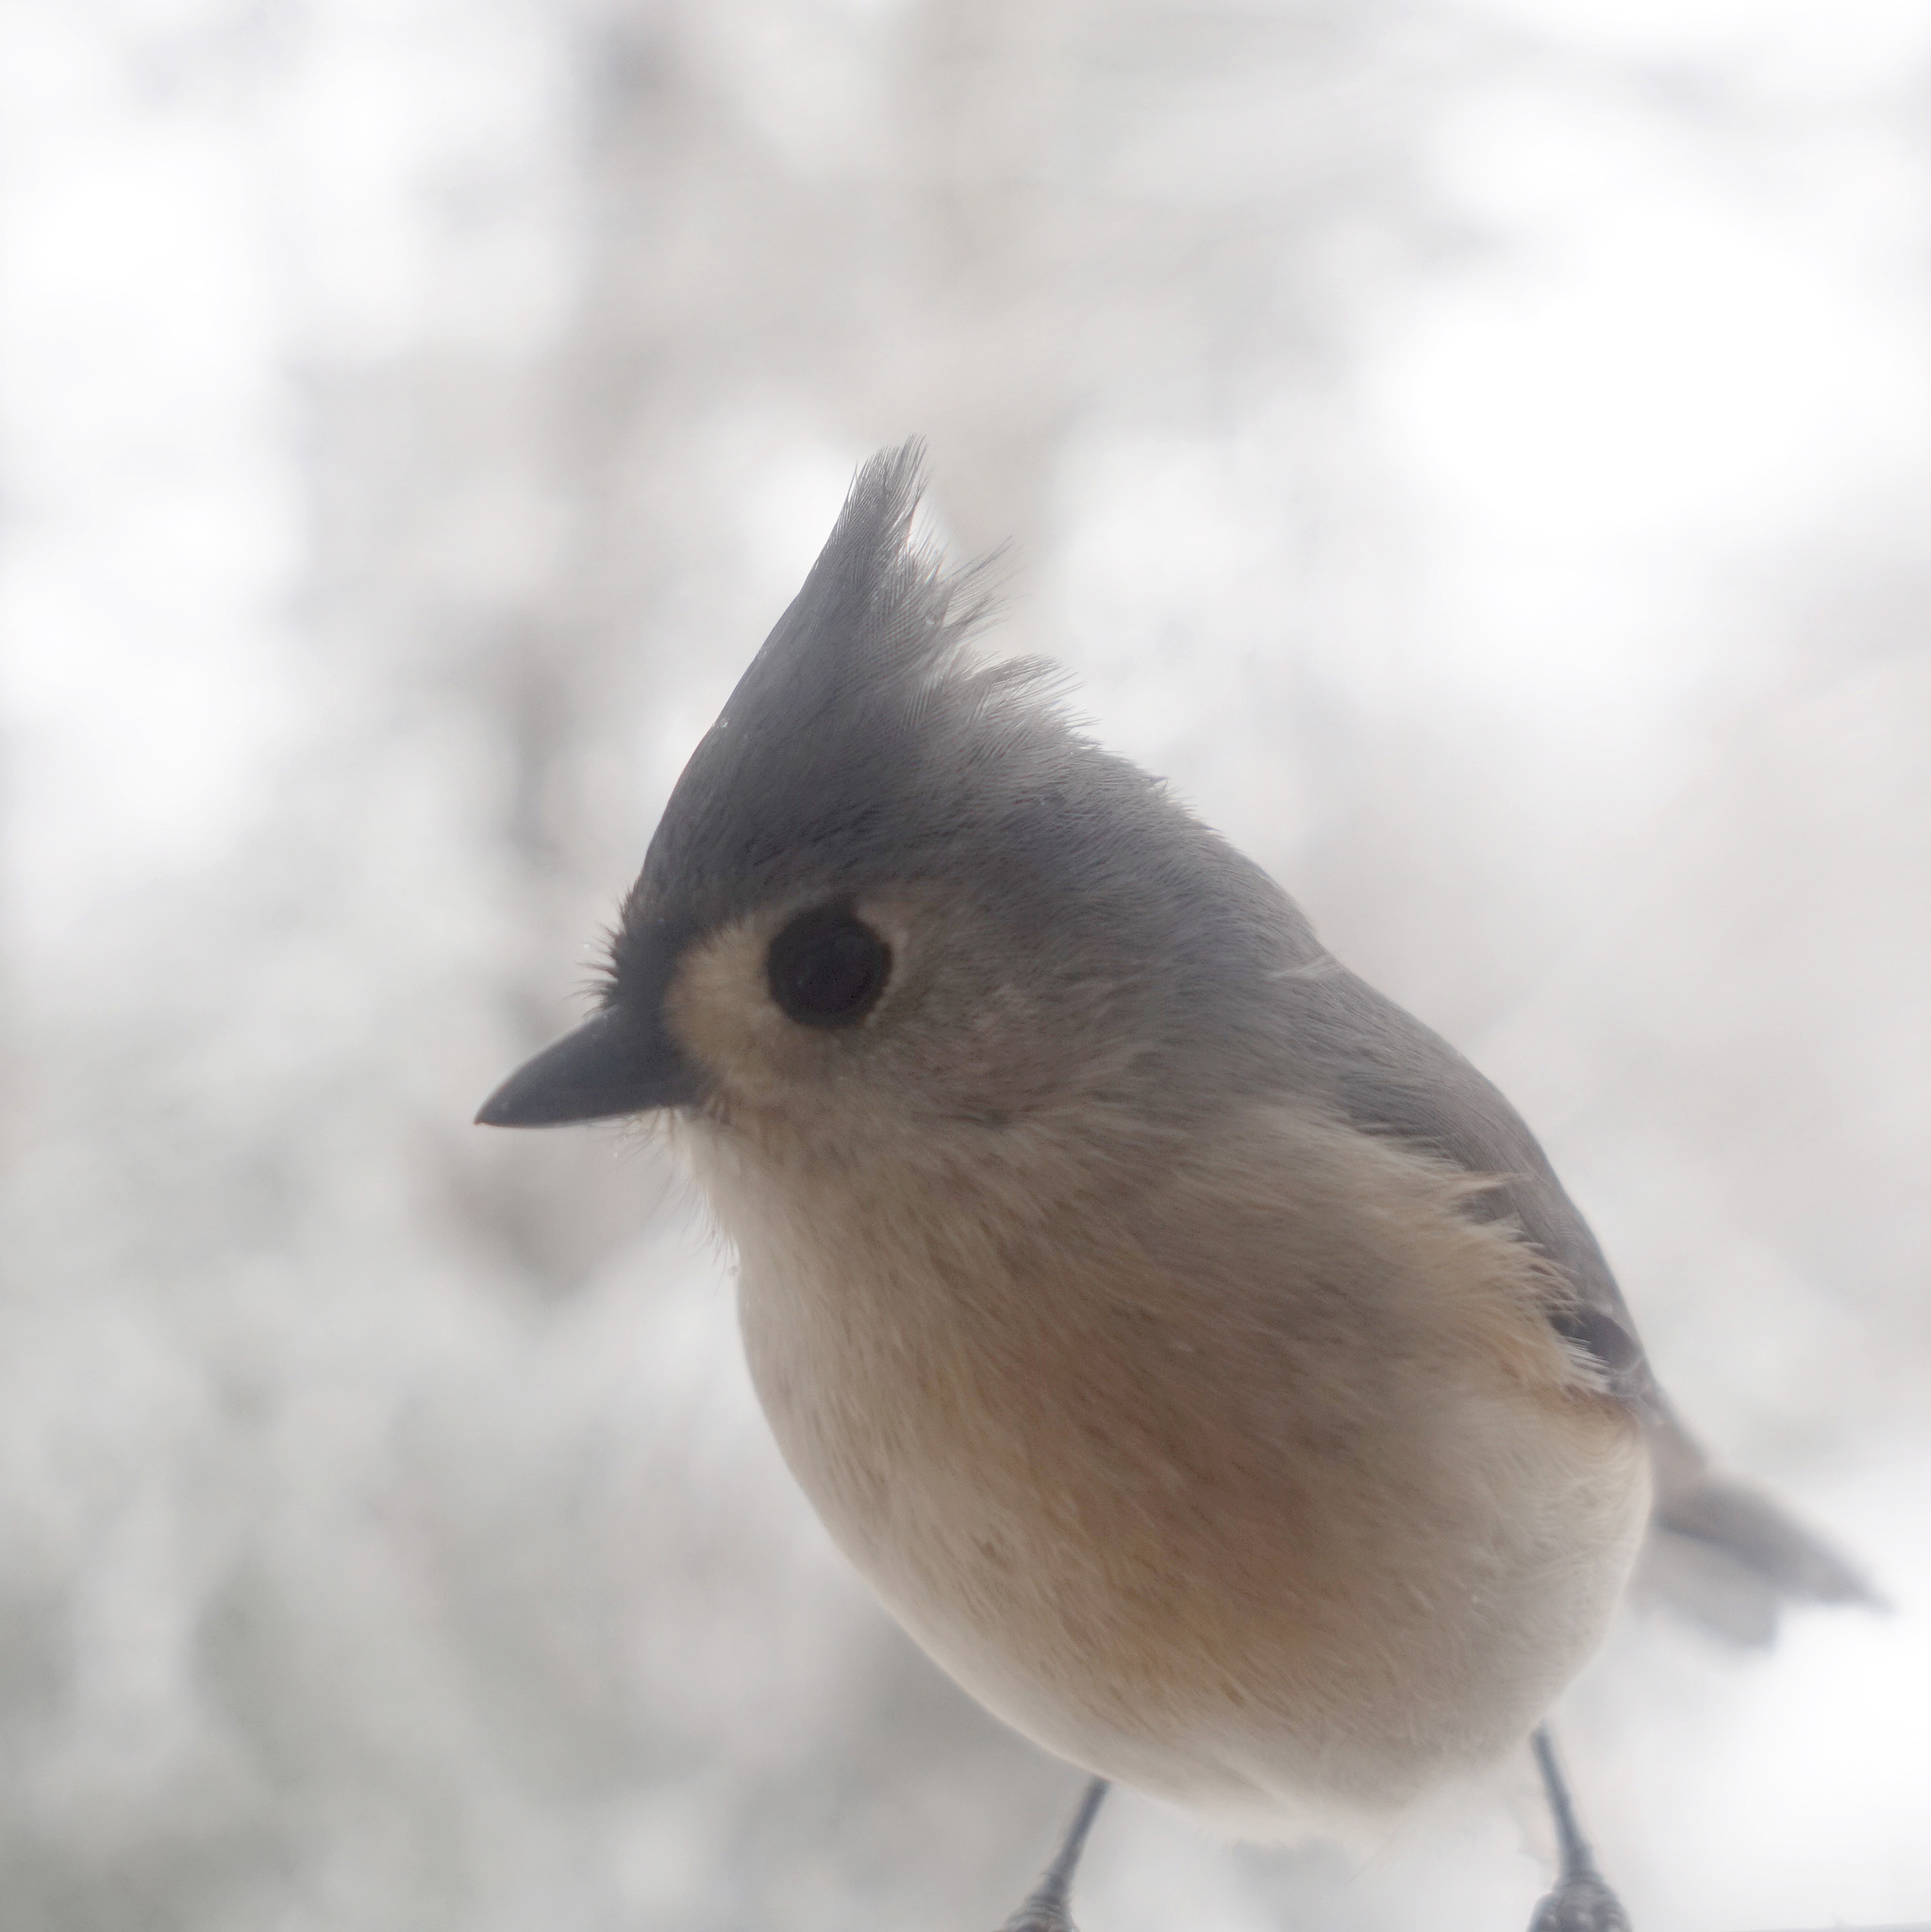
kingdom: Animalia
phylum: Chordata
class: Aves
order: Passeriformes
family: Paridae
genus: Baeolophus
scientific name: Baeolophus bicolor
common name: Tufted titmouse
